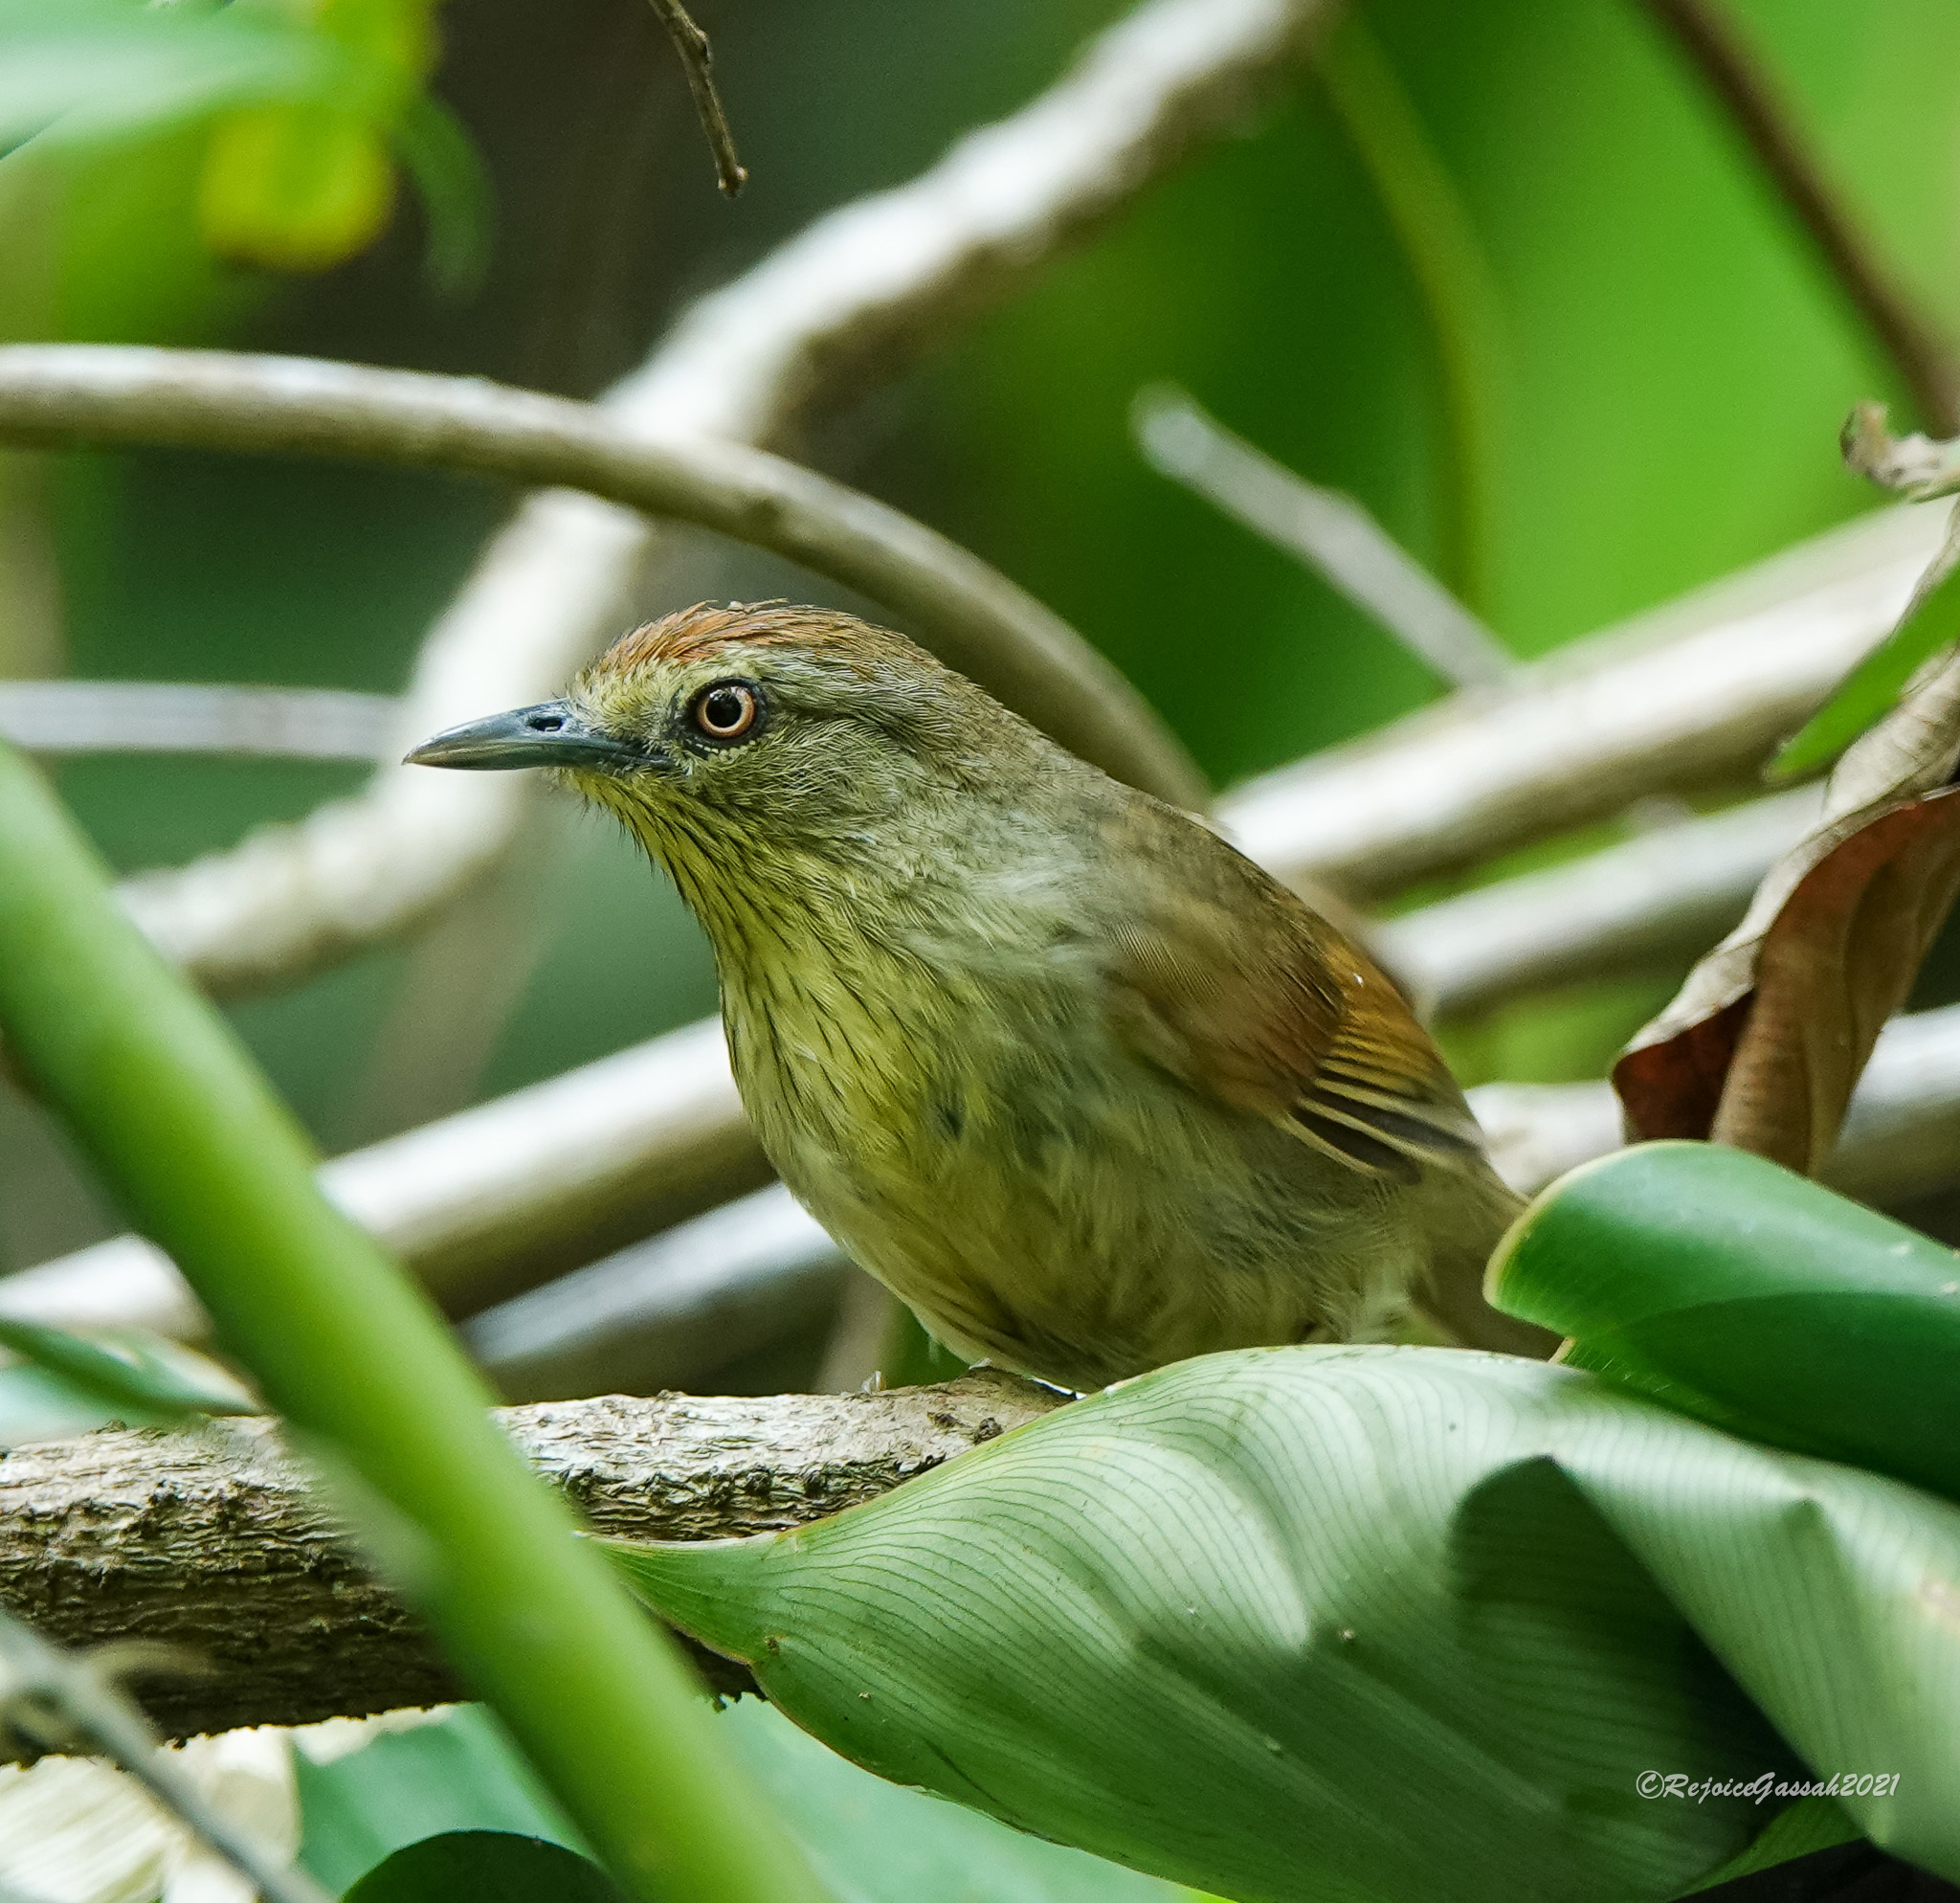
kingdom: Animalia
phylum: Chordata
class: Aves
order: Passeriformes
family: Timaliidae
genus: Macronus
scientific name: Macronus gularis
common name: Striped tit-babbler
